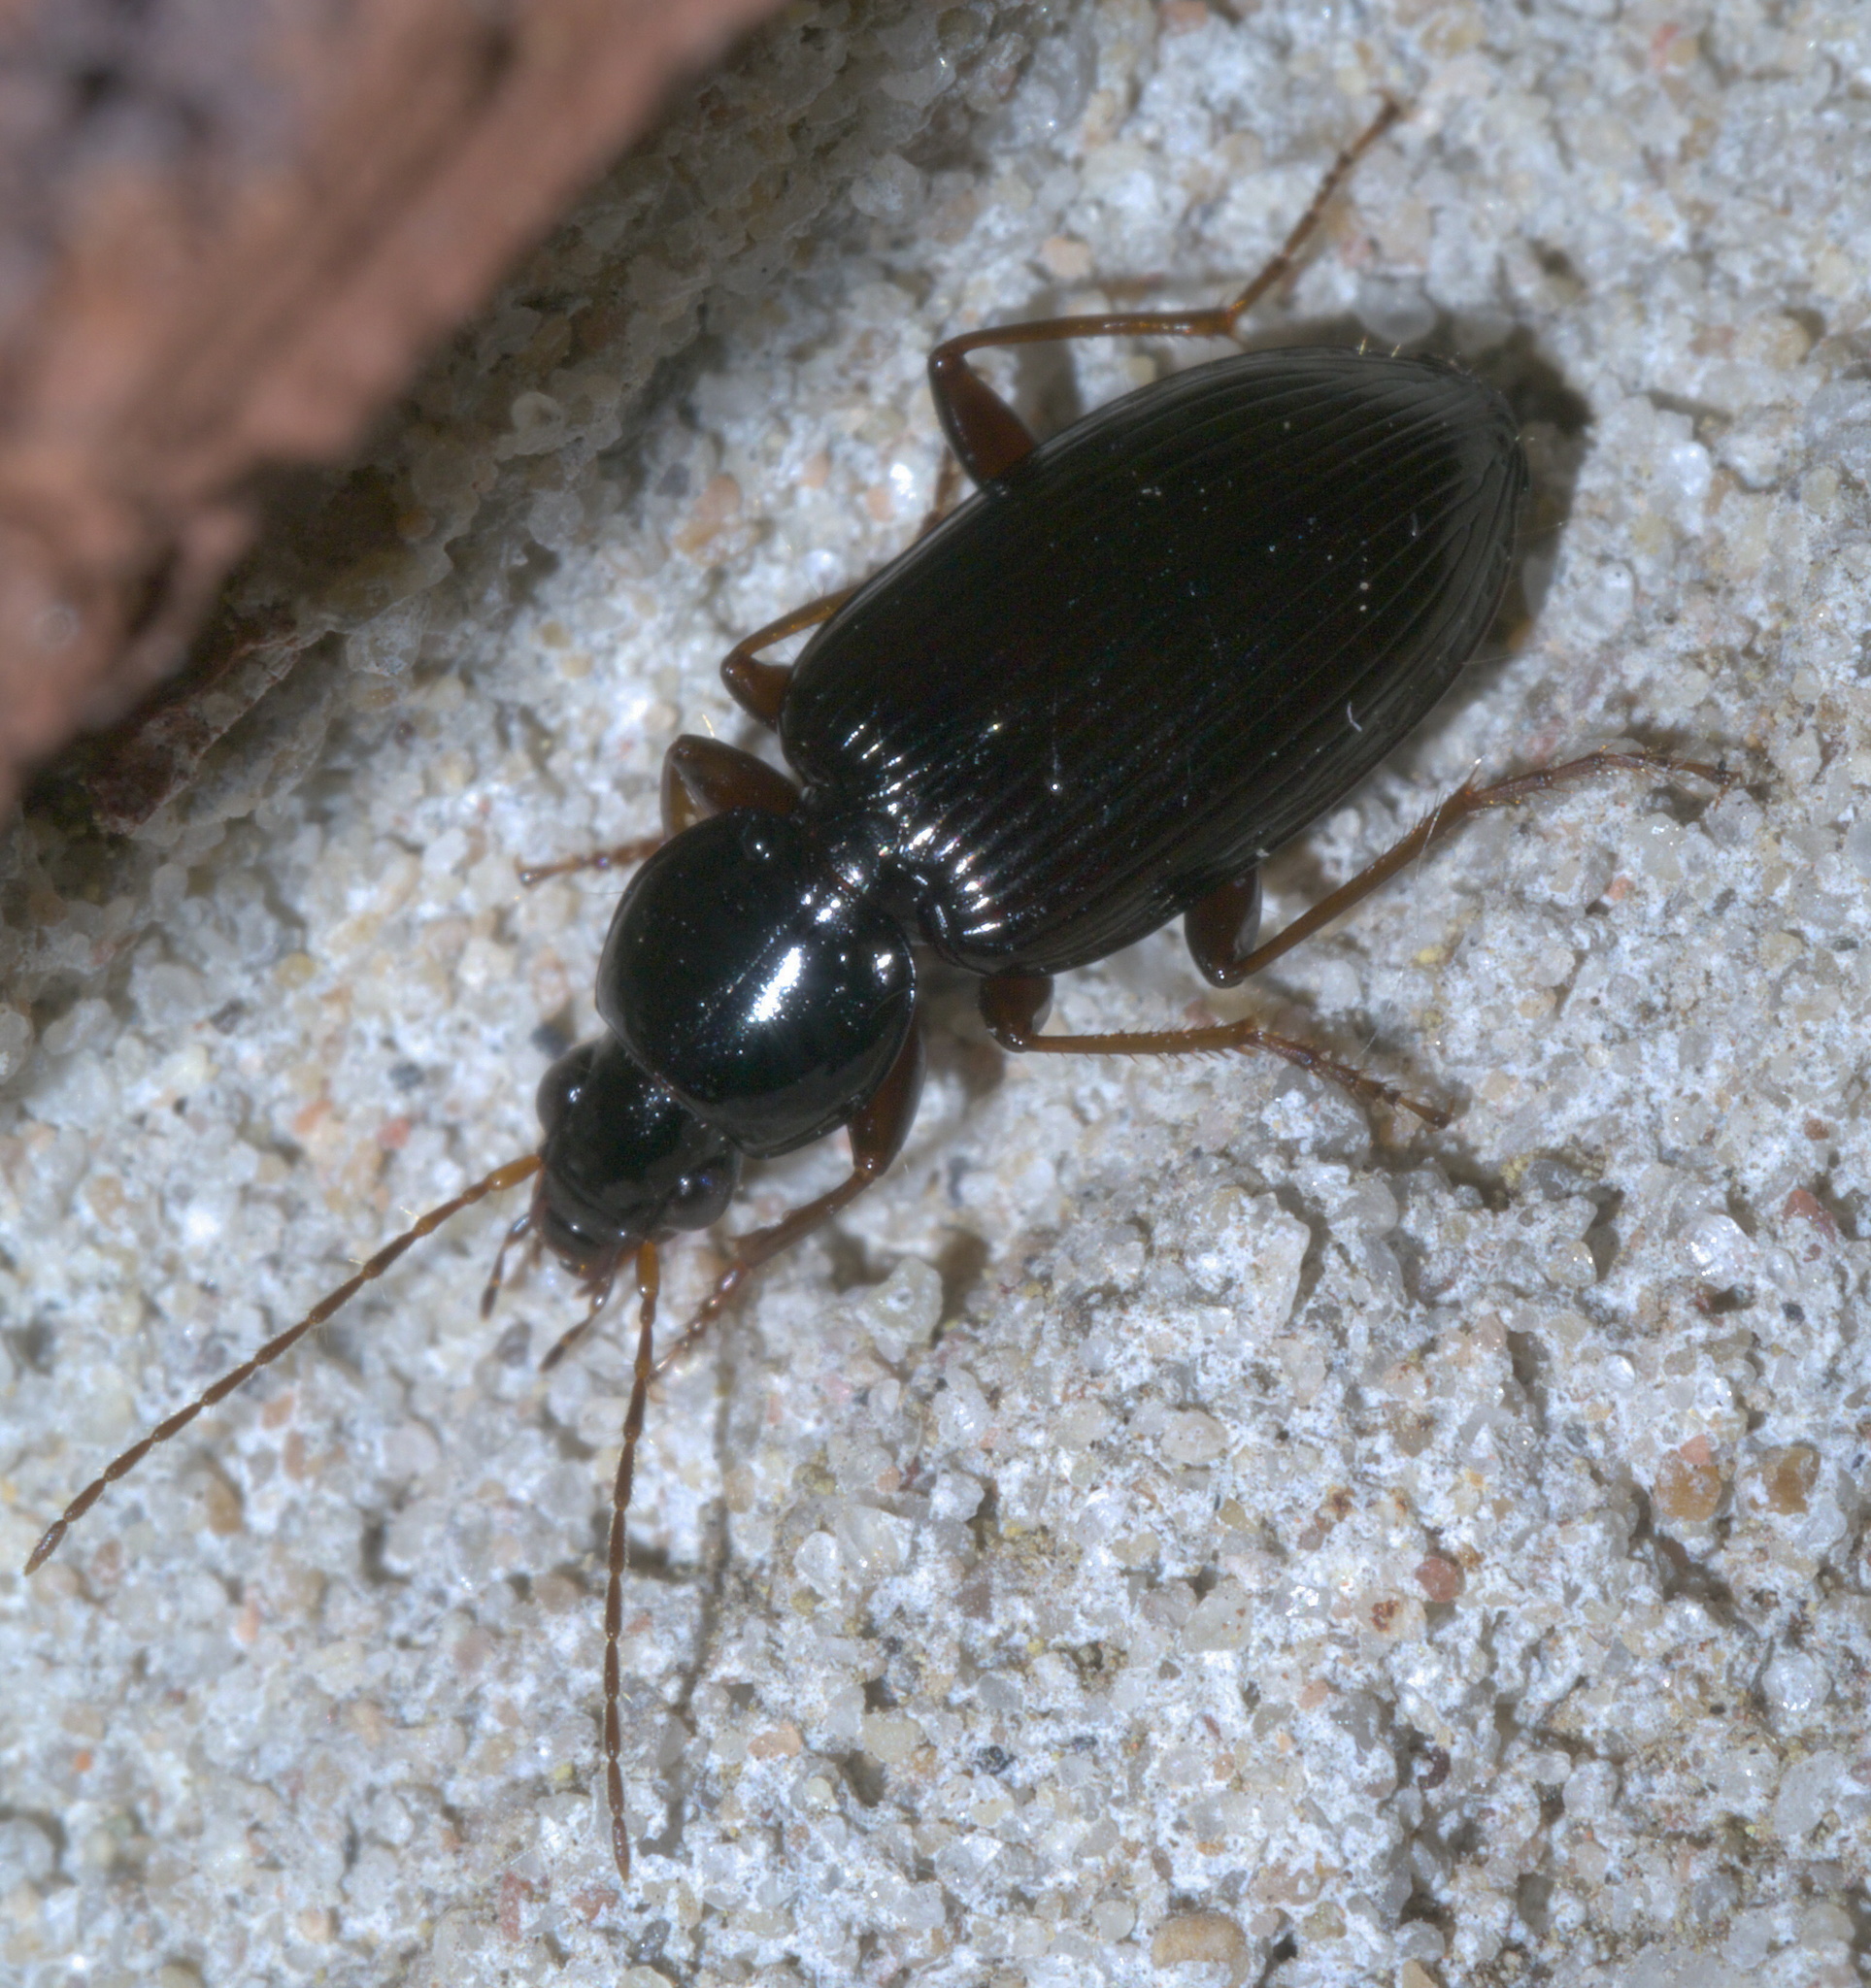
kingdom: Animalia
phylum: Arthropoda
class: Insecta
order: Coleoptera
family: Carabidae
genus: Agonum
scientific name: Agonum punctiforme
